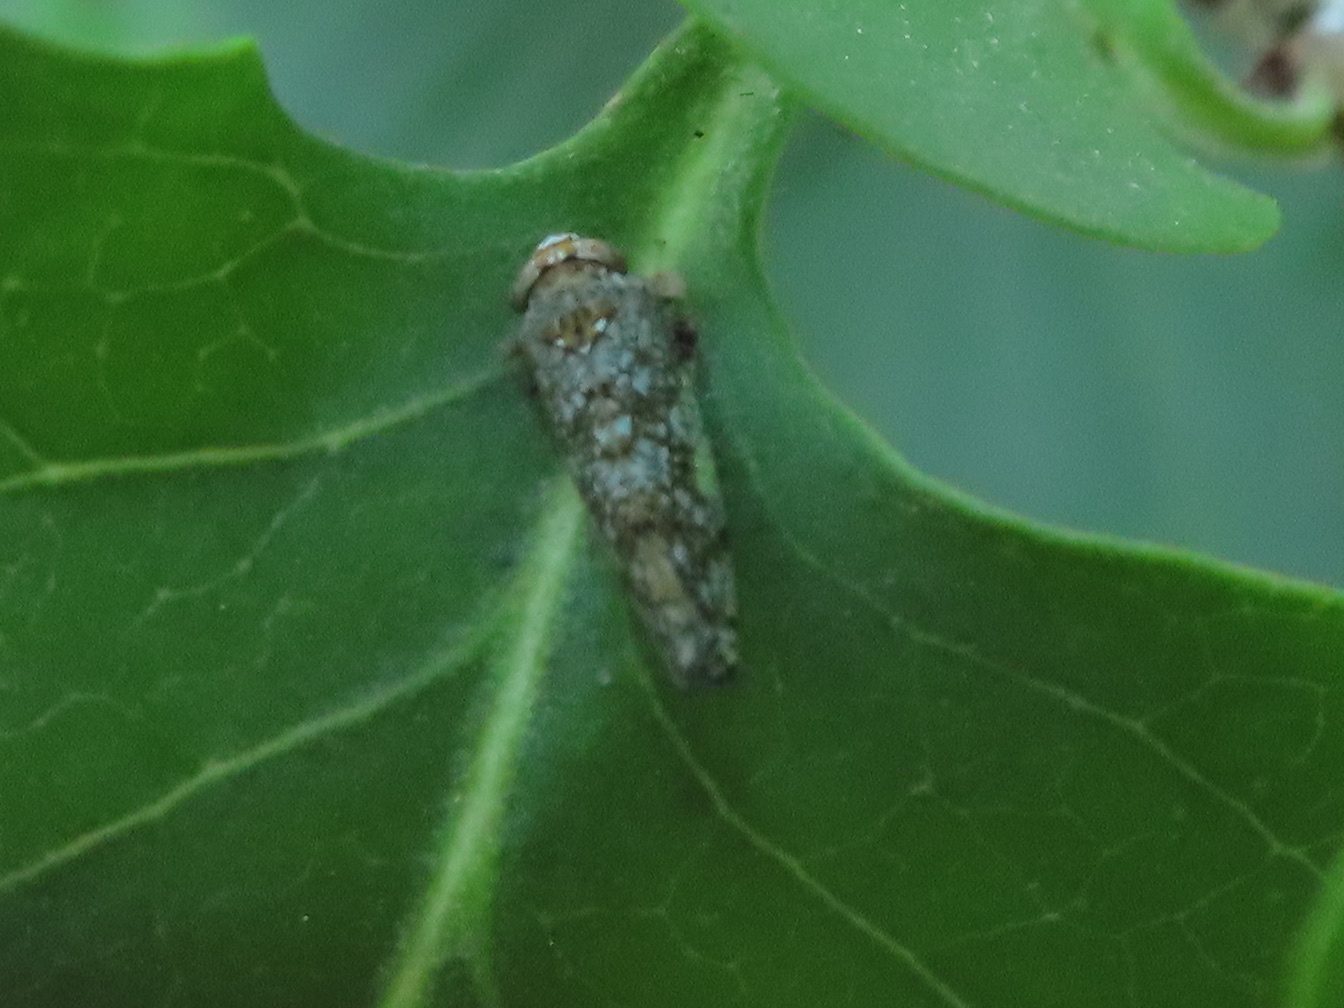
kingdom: Animalia
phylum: Arthropoda
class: Insecta
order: Hemiptera
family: Cicadellidae
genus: Orientus
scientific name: Orientus ishidae
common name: Japanese leafhopper
